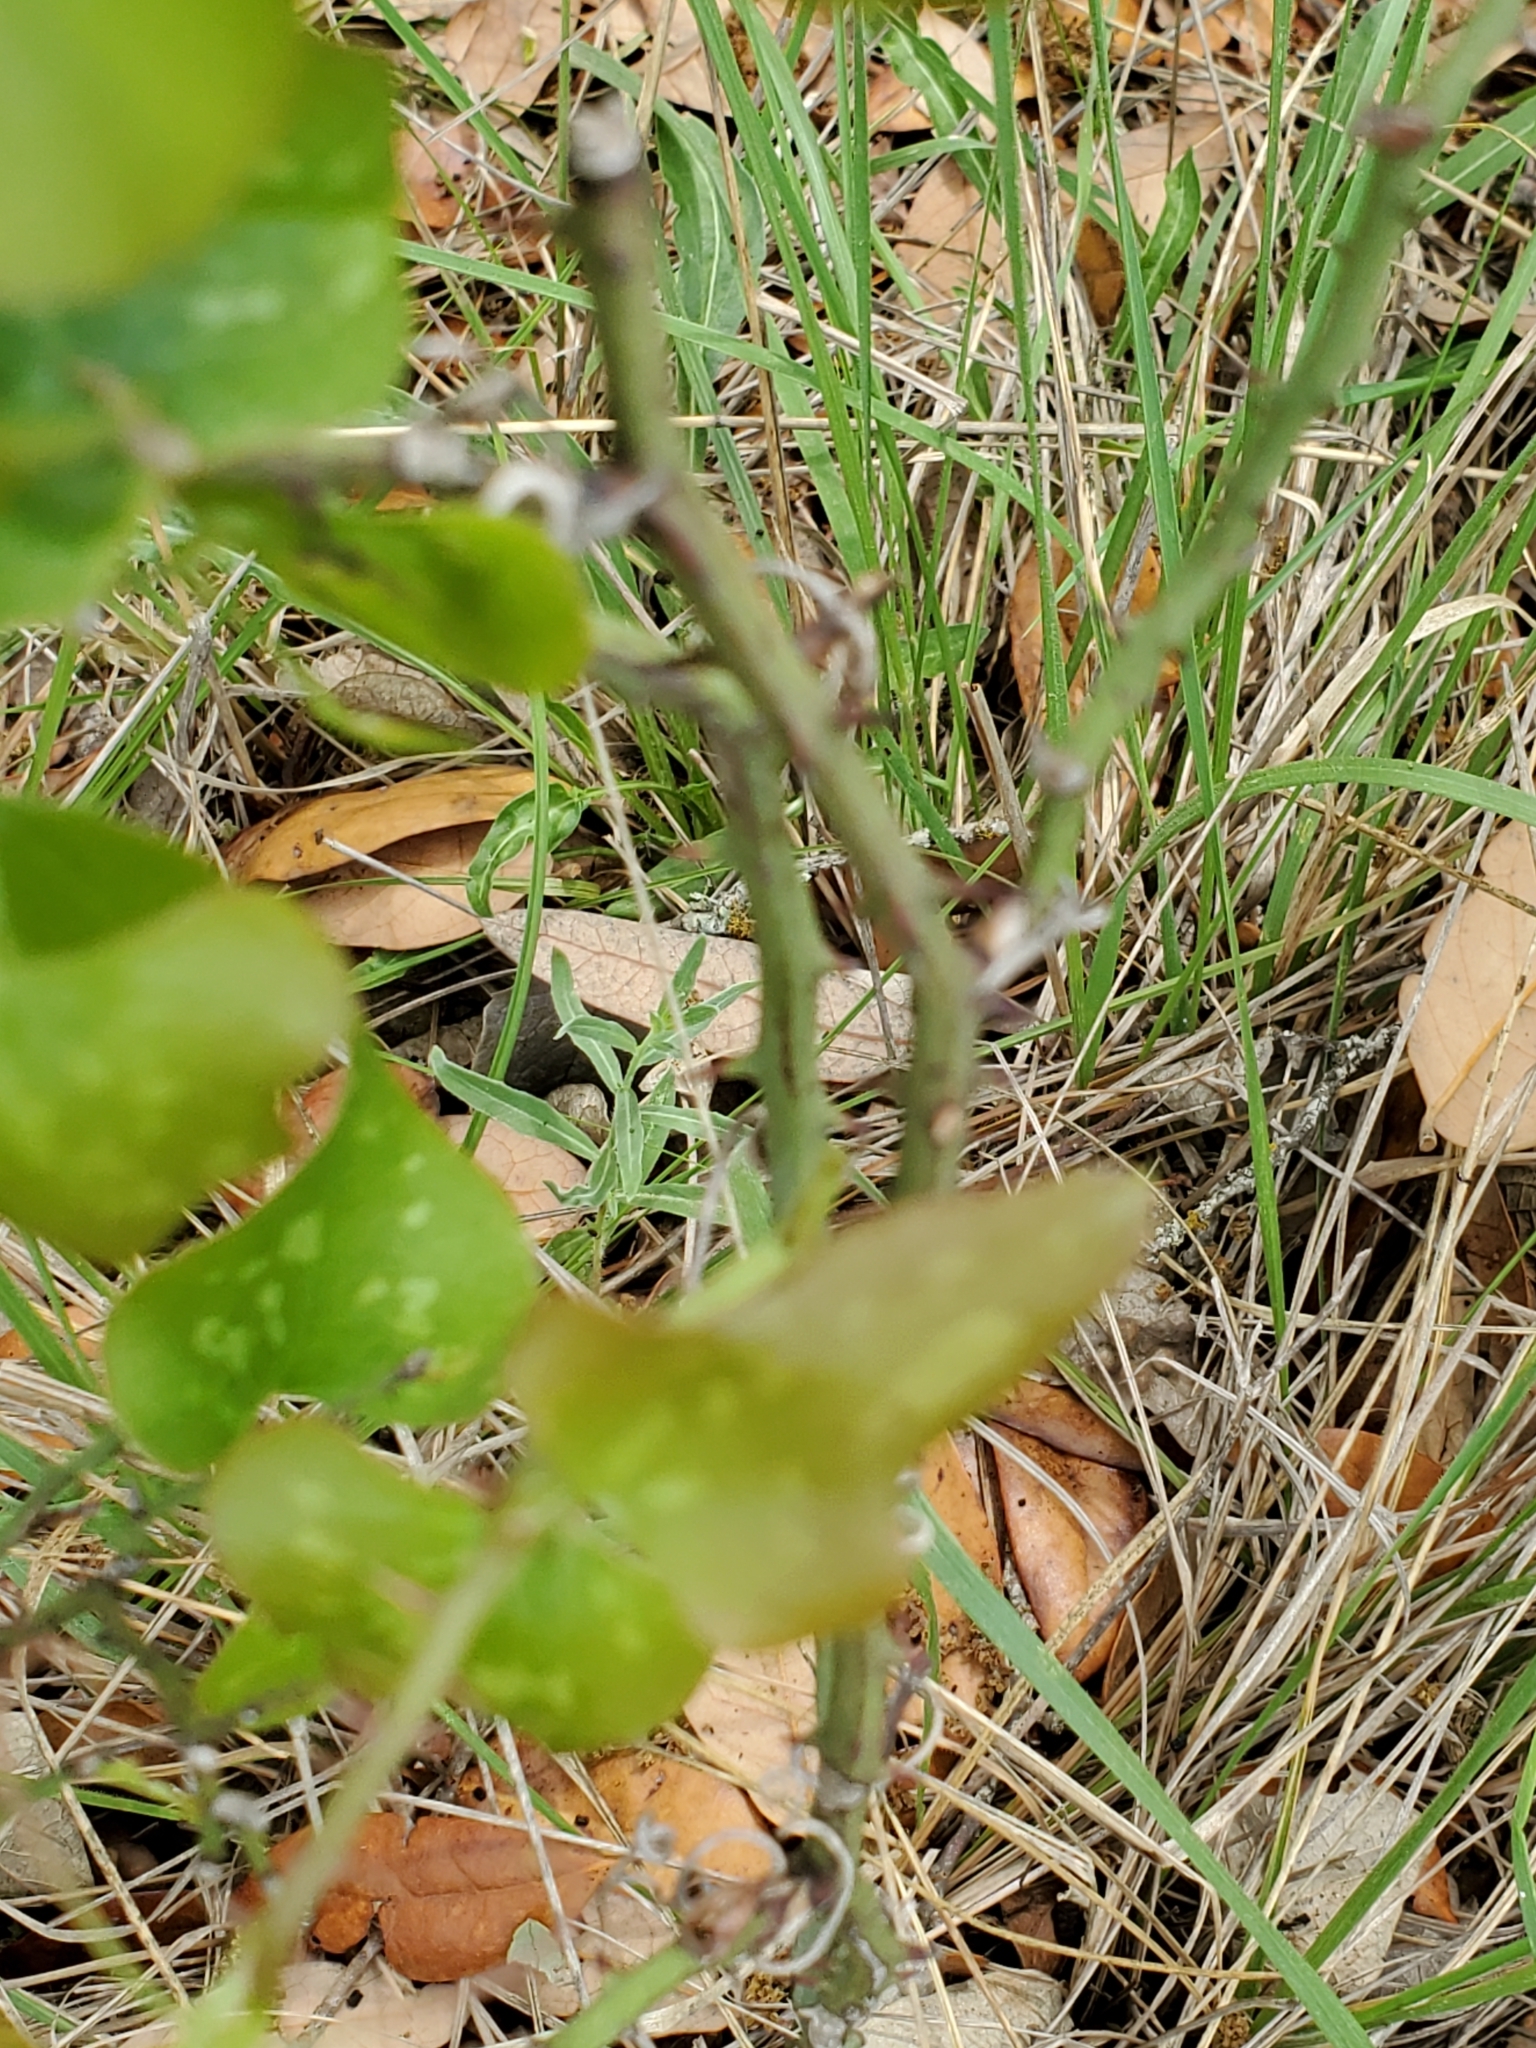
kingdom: Plantae
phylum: Tracheophyta
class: Liliopsida
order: Liliales
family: Smilacaceae
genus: Smilax
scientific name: Smilax bona-nox
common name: Catbrier
